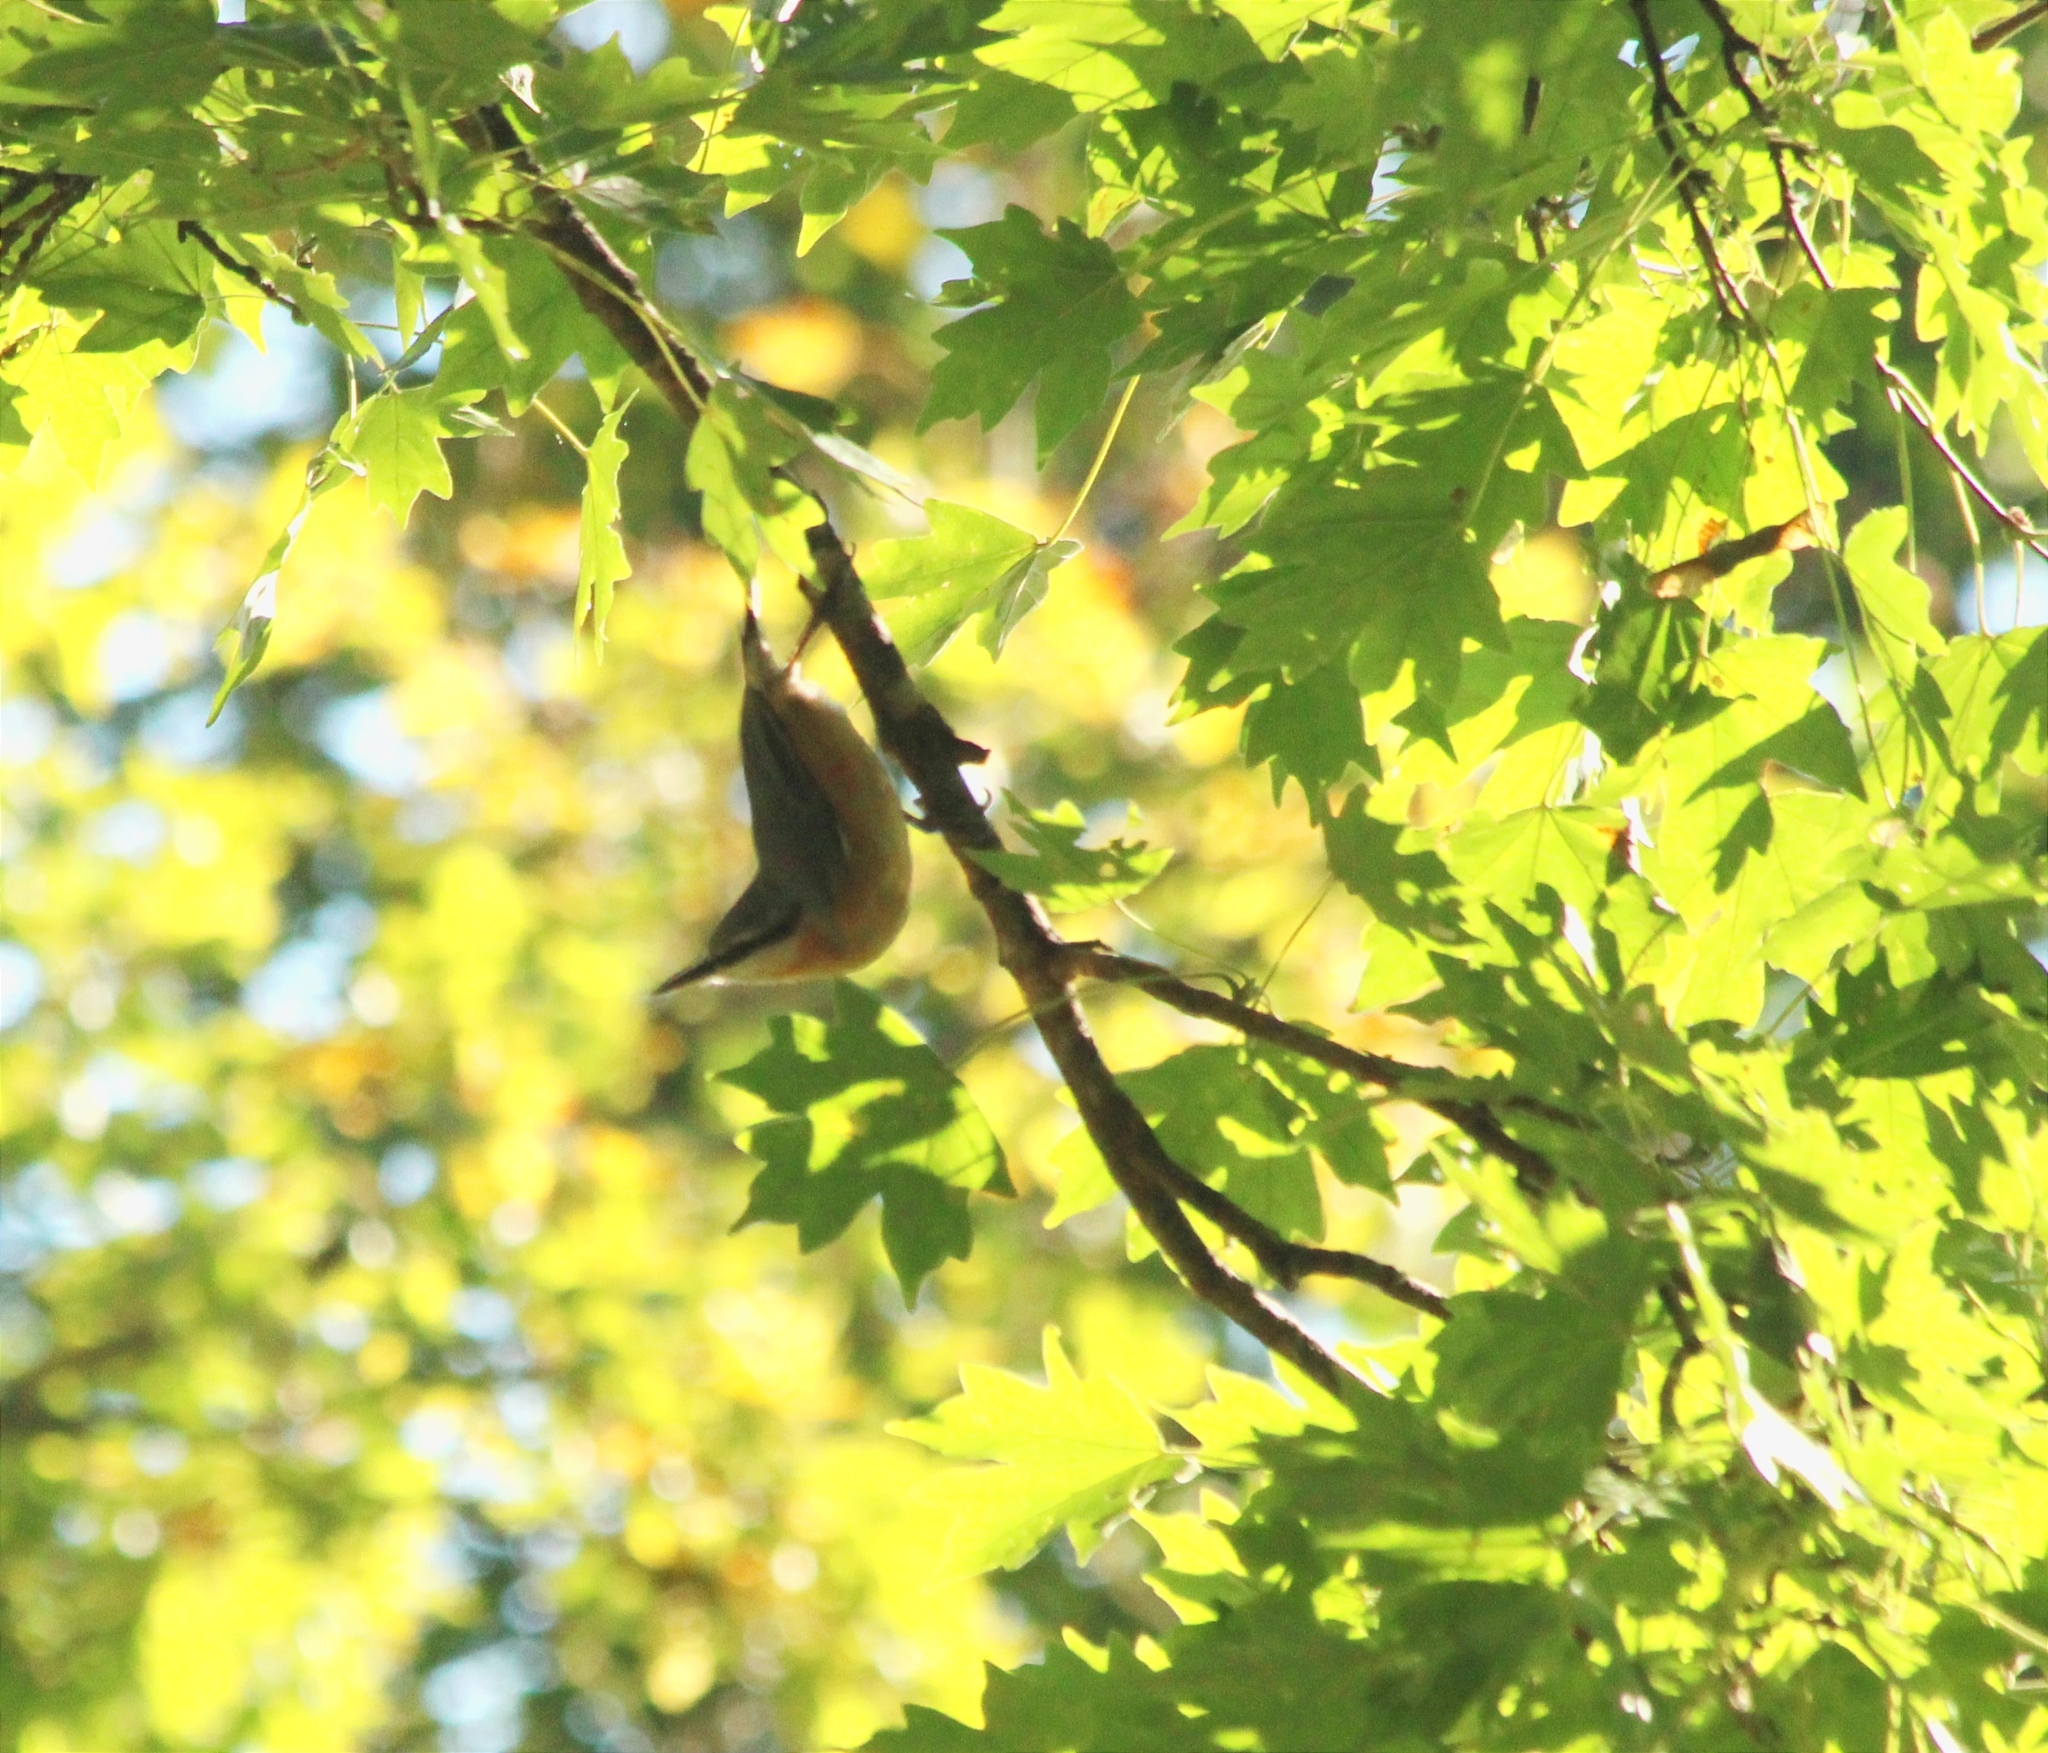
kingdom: Animalia
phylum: Chordata
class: Aves
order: Passeriformes
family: Sittidae
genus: Sitta
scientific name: Sitta europaea
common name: Eurasian nuthatch
